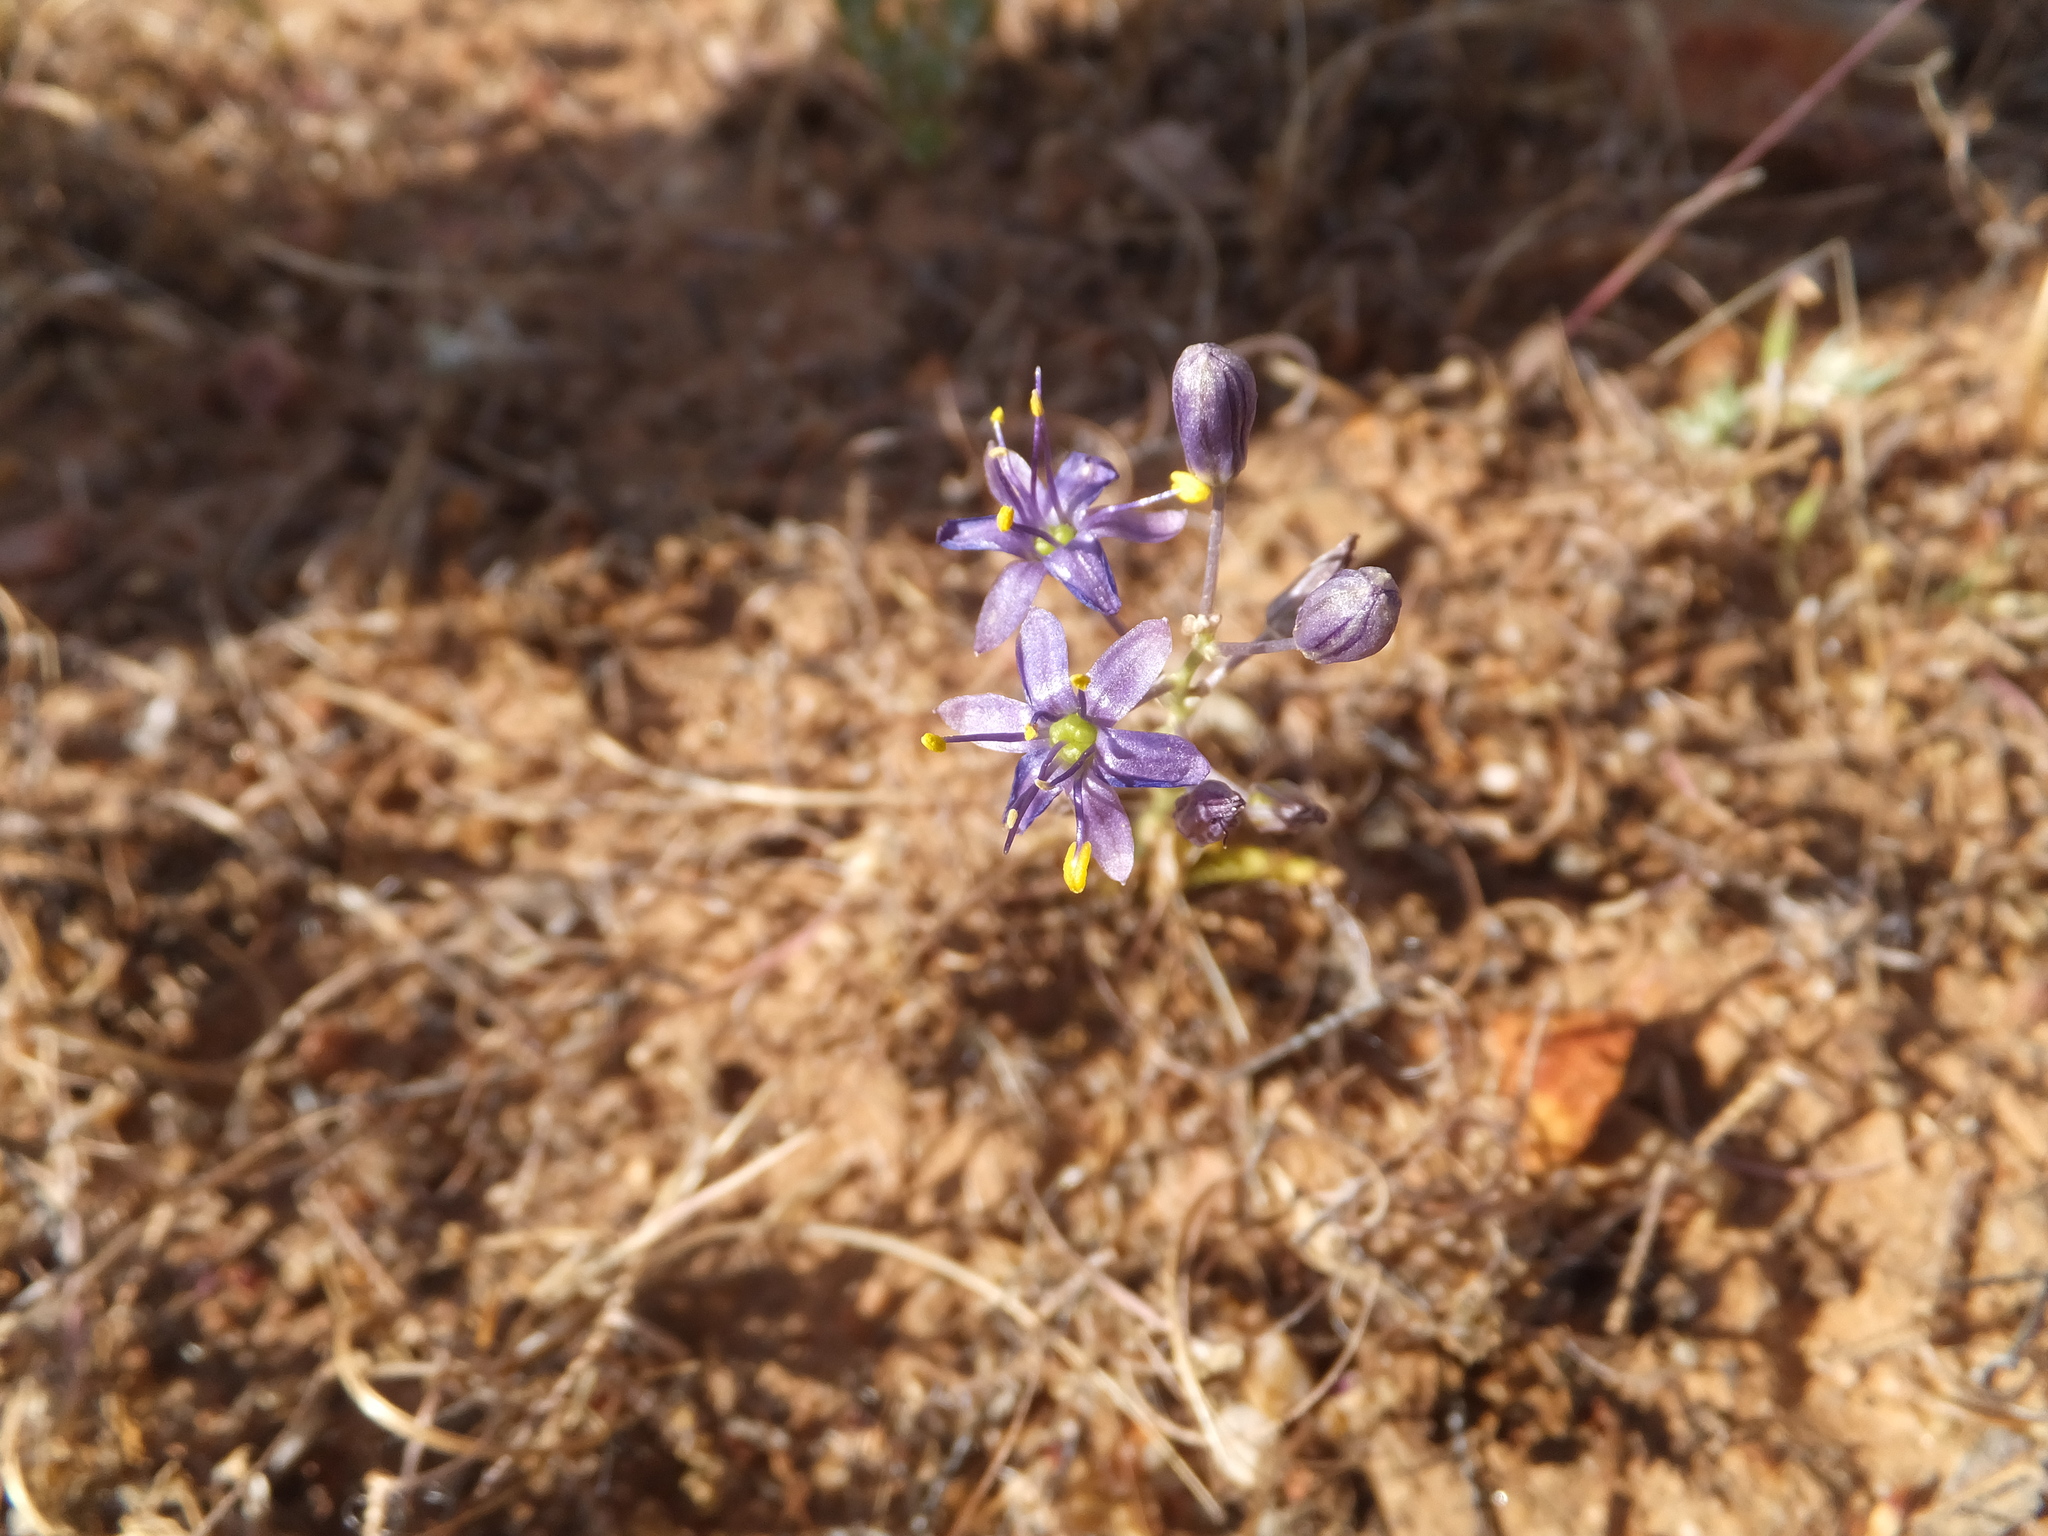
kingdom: Plantae
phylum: Tracheophyta
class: Liliopsida
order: Asparagales
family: Asparagaceae
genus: Hooveria
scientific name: Hooveria purpurea
